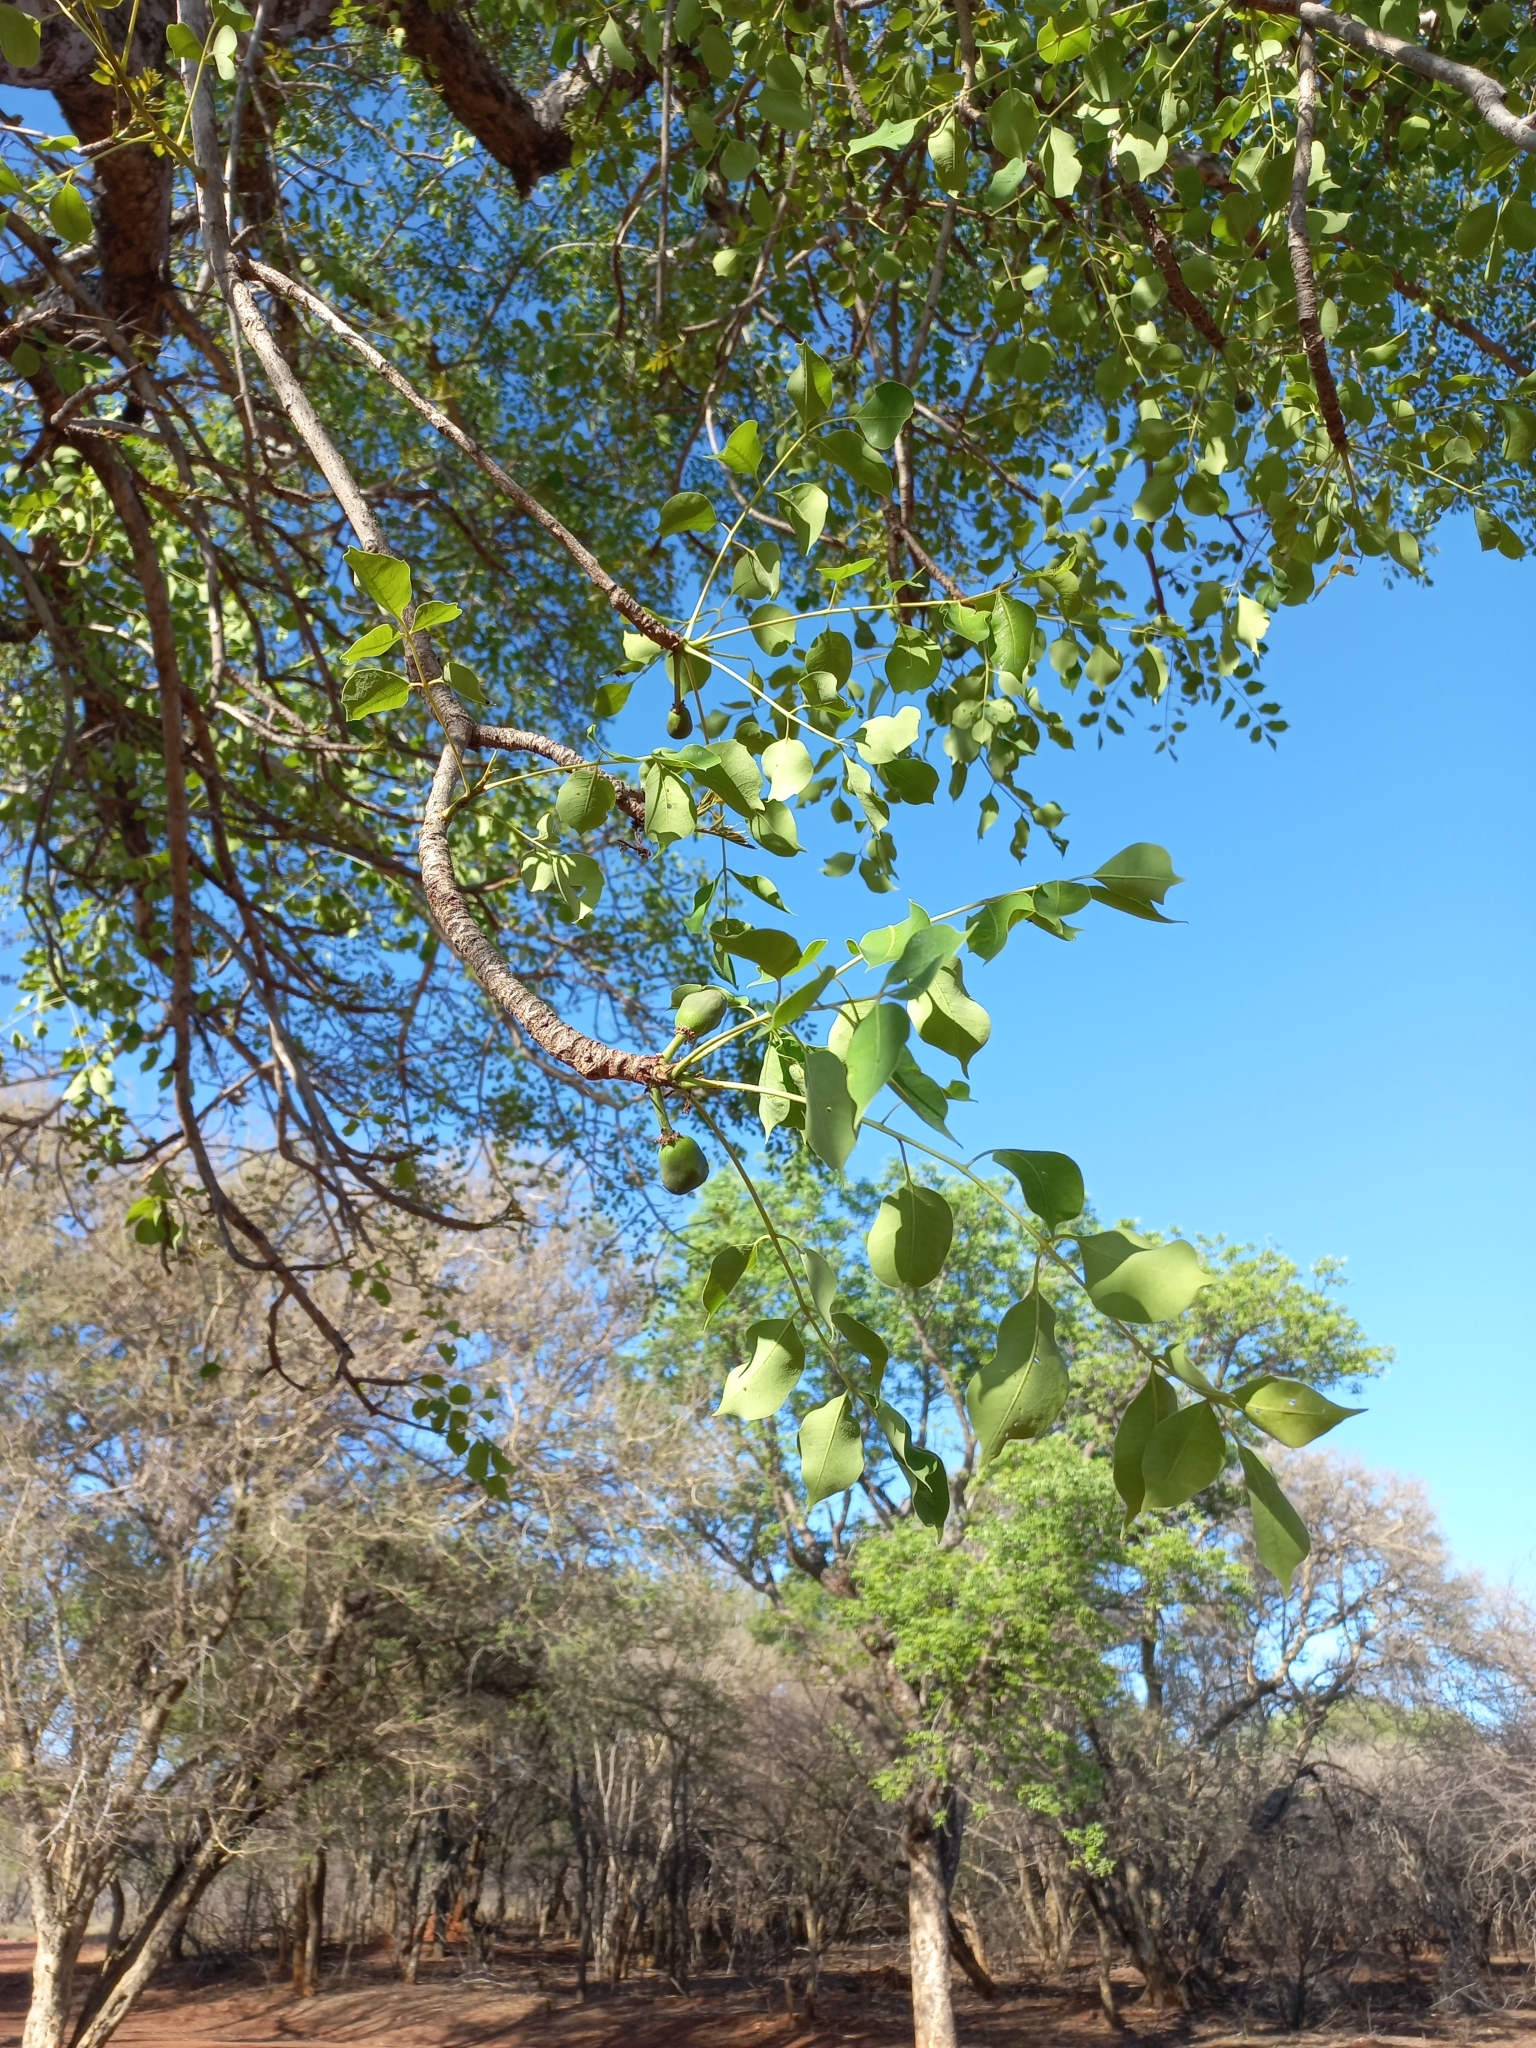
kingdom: Plantae
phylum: Tracheophyta
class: Magnoliopsida
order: Sapindales
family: Anacardiaceae
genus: Sclerocarya
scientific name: Sclerocarya birrea
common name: Marula
